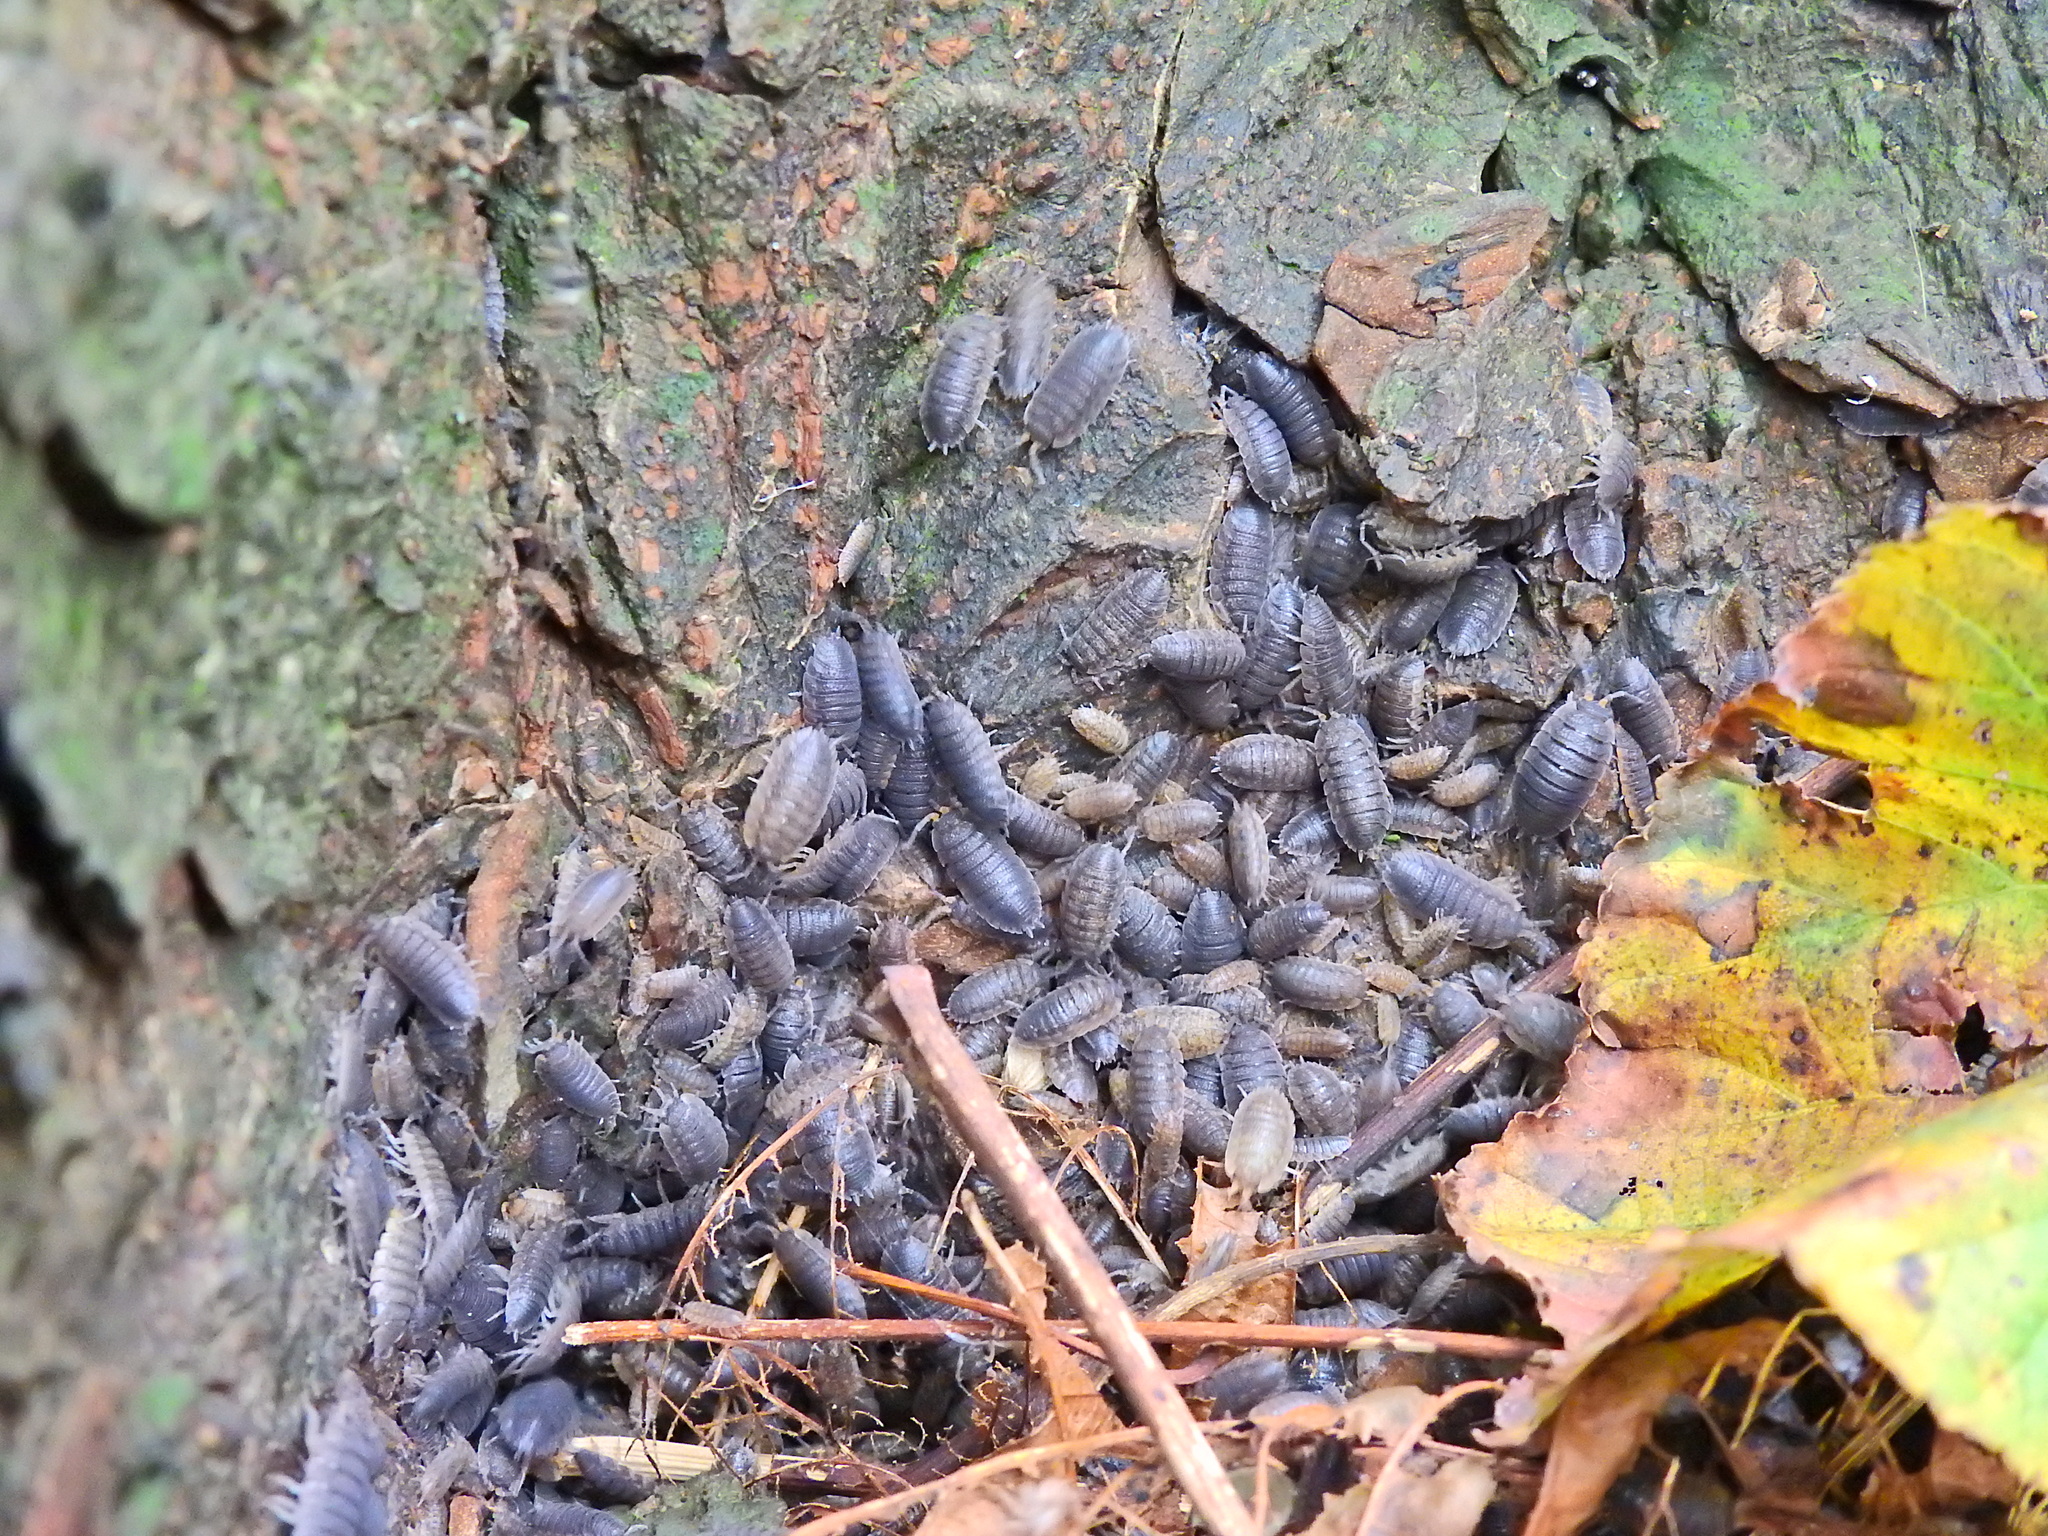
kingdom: Animalia
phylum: Arthropoda
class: Malacostraca
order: Isopoda
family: Porcellionidae
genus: Porcellio
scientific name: Porcellio scaber
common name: Common rough woodlouse
